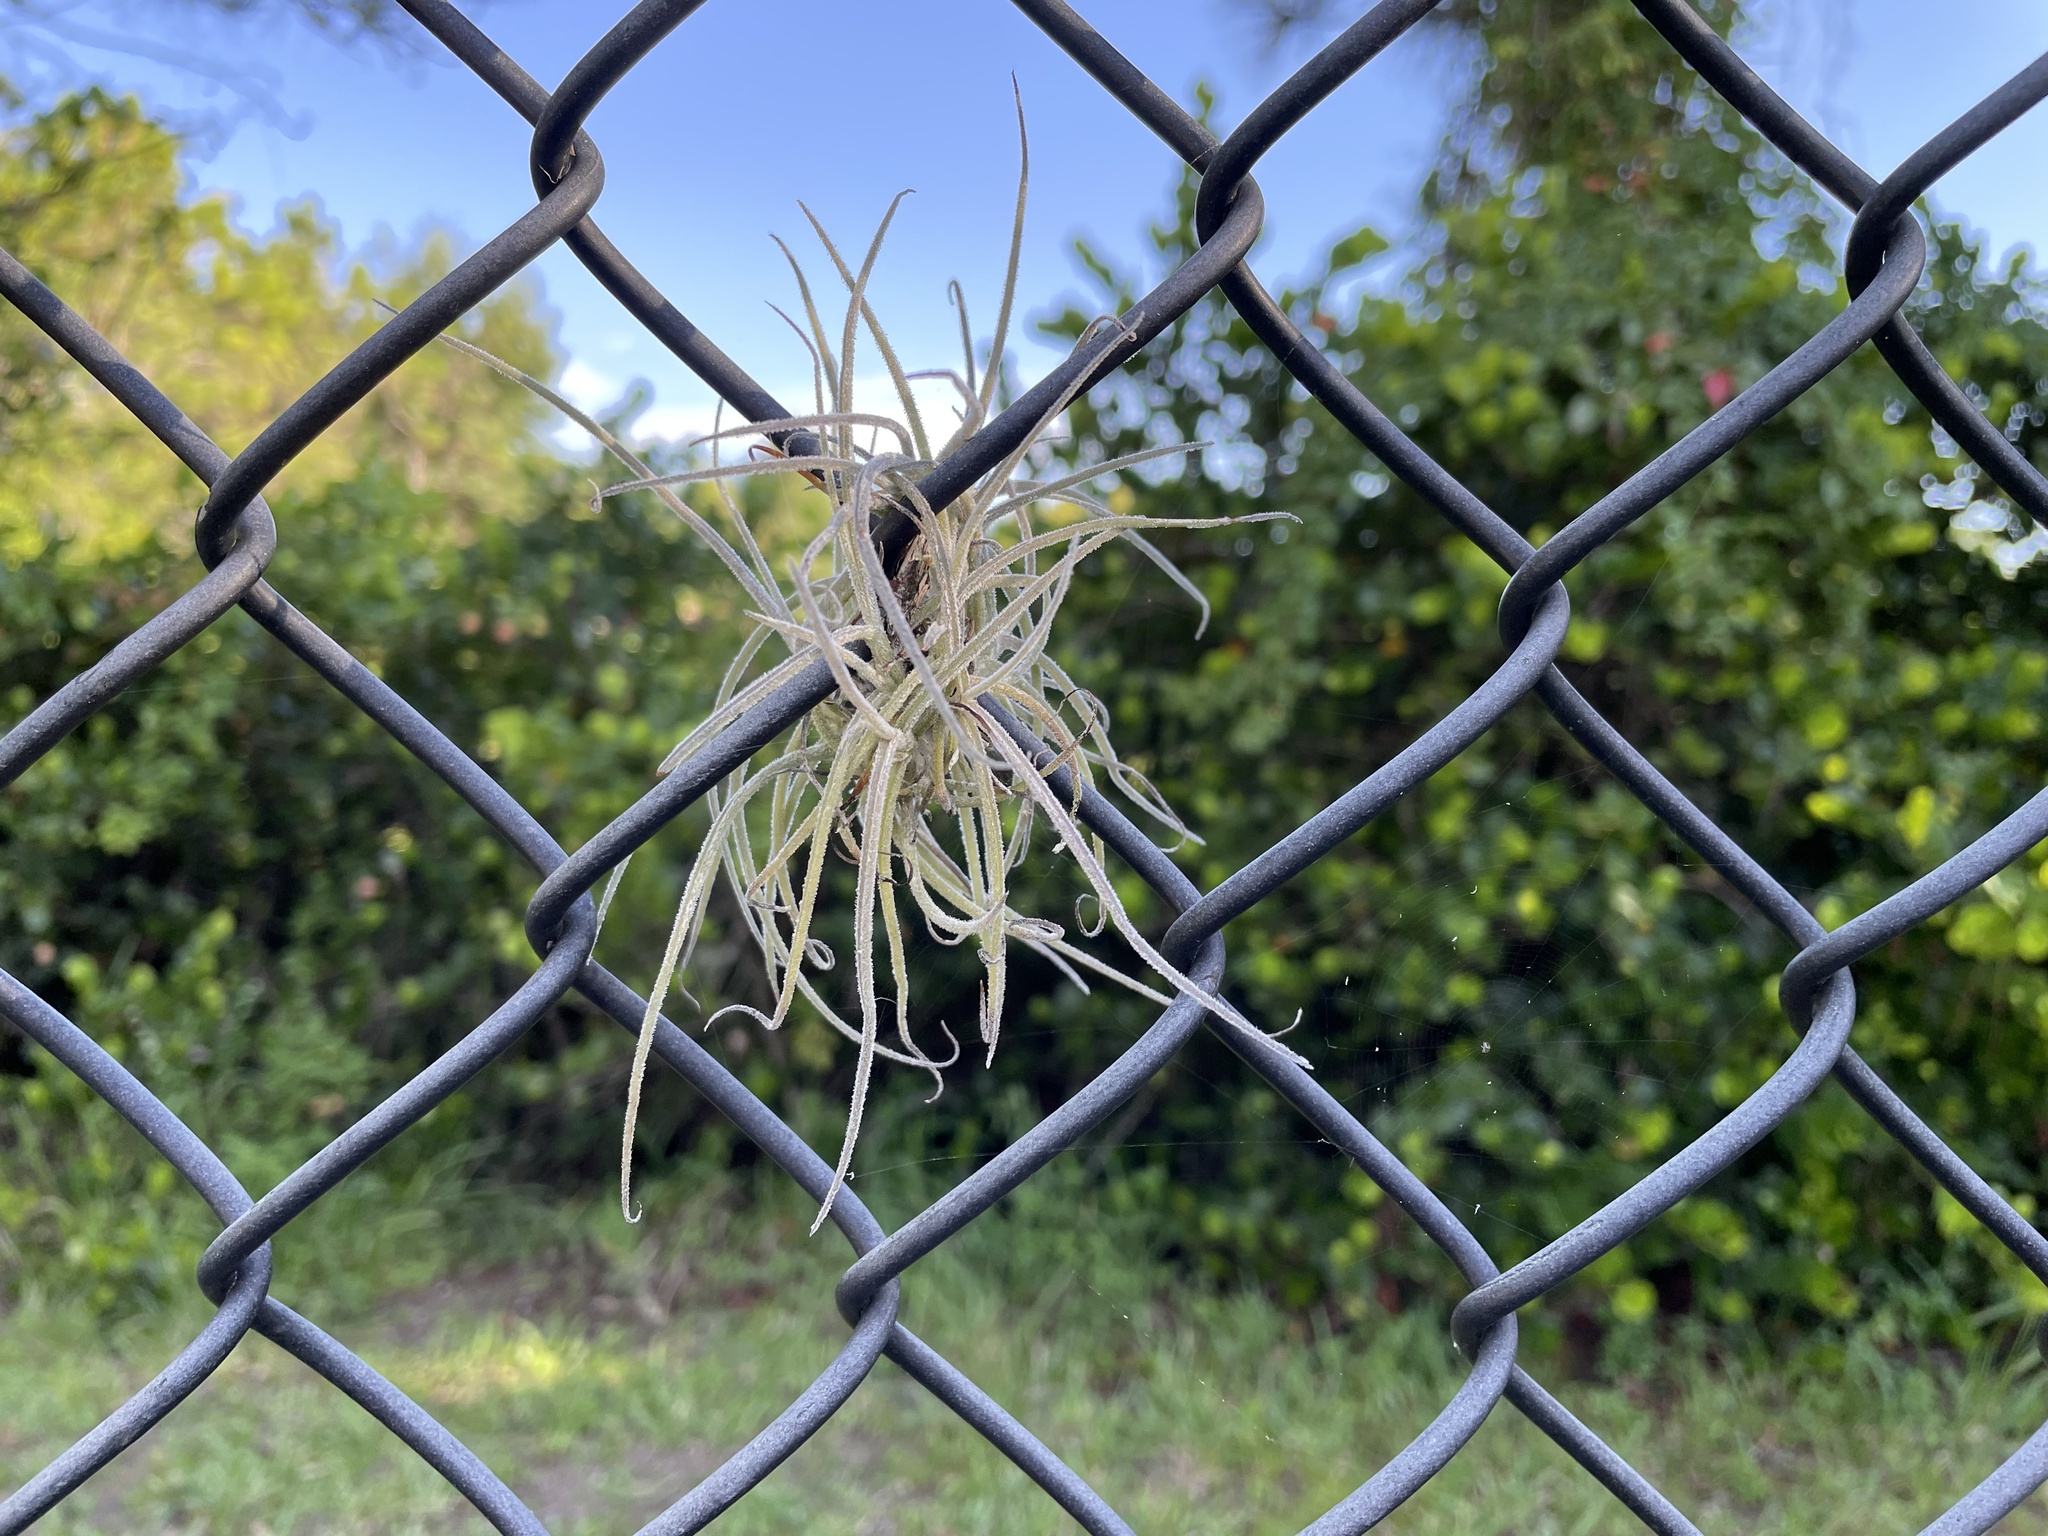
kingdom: Plantae
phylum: Tracheophyta
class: Liliopsida
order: Poales
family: Bromeliaceae
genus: Tillandsia
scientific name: Tillandsia recurvata
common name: Small ballmoss
